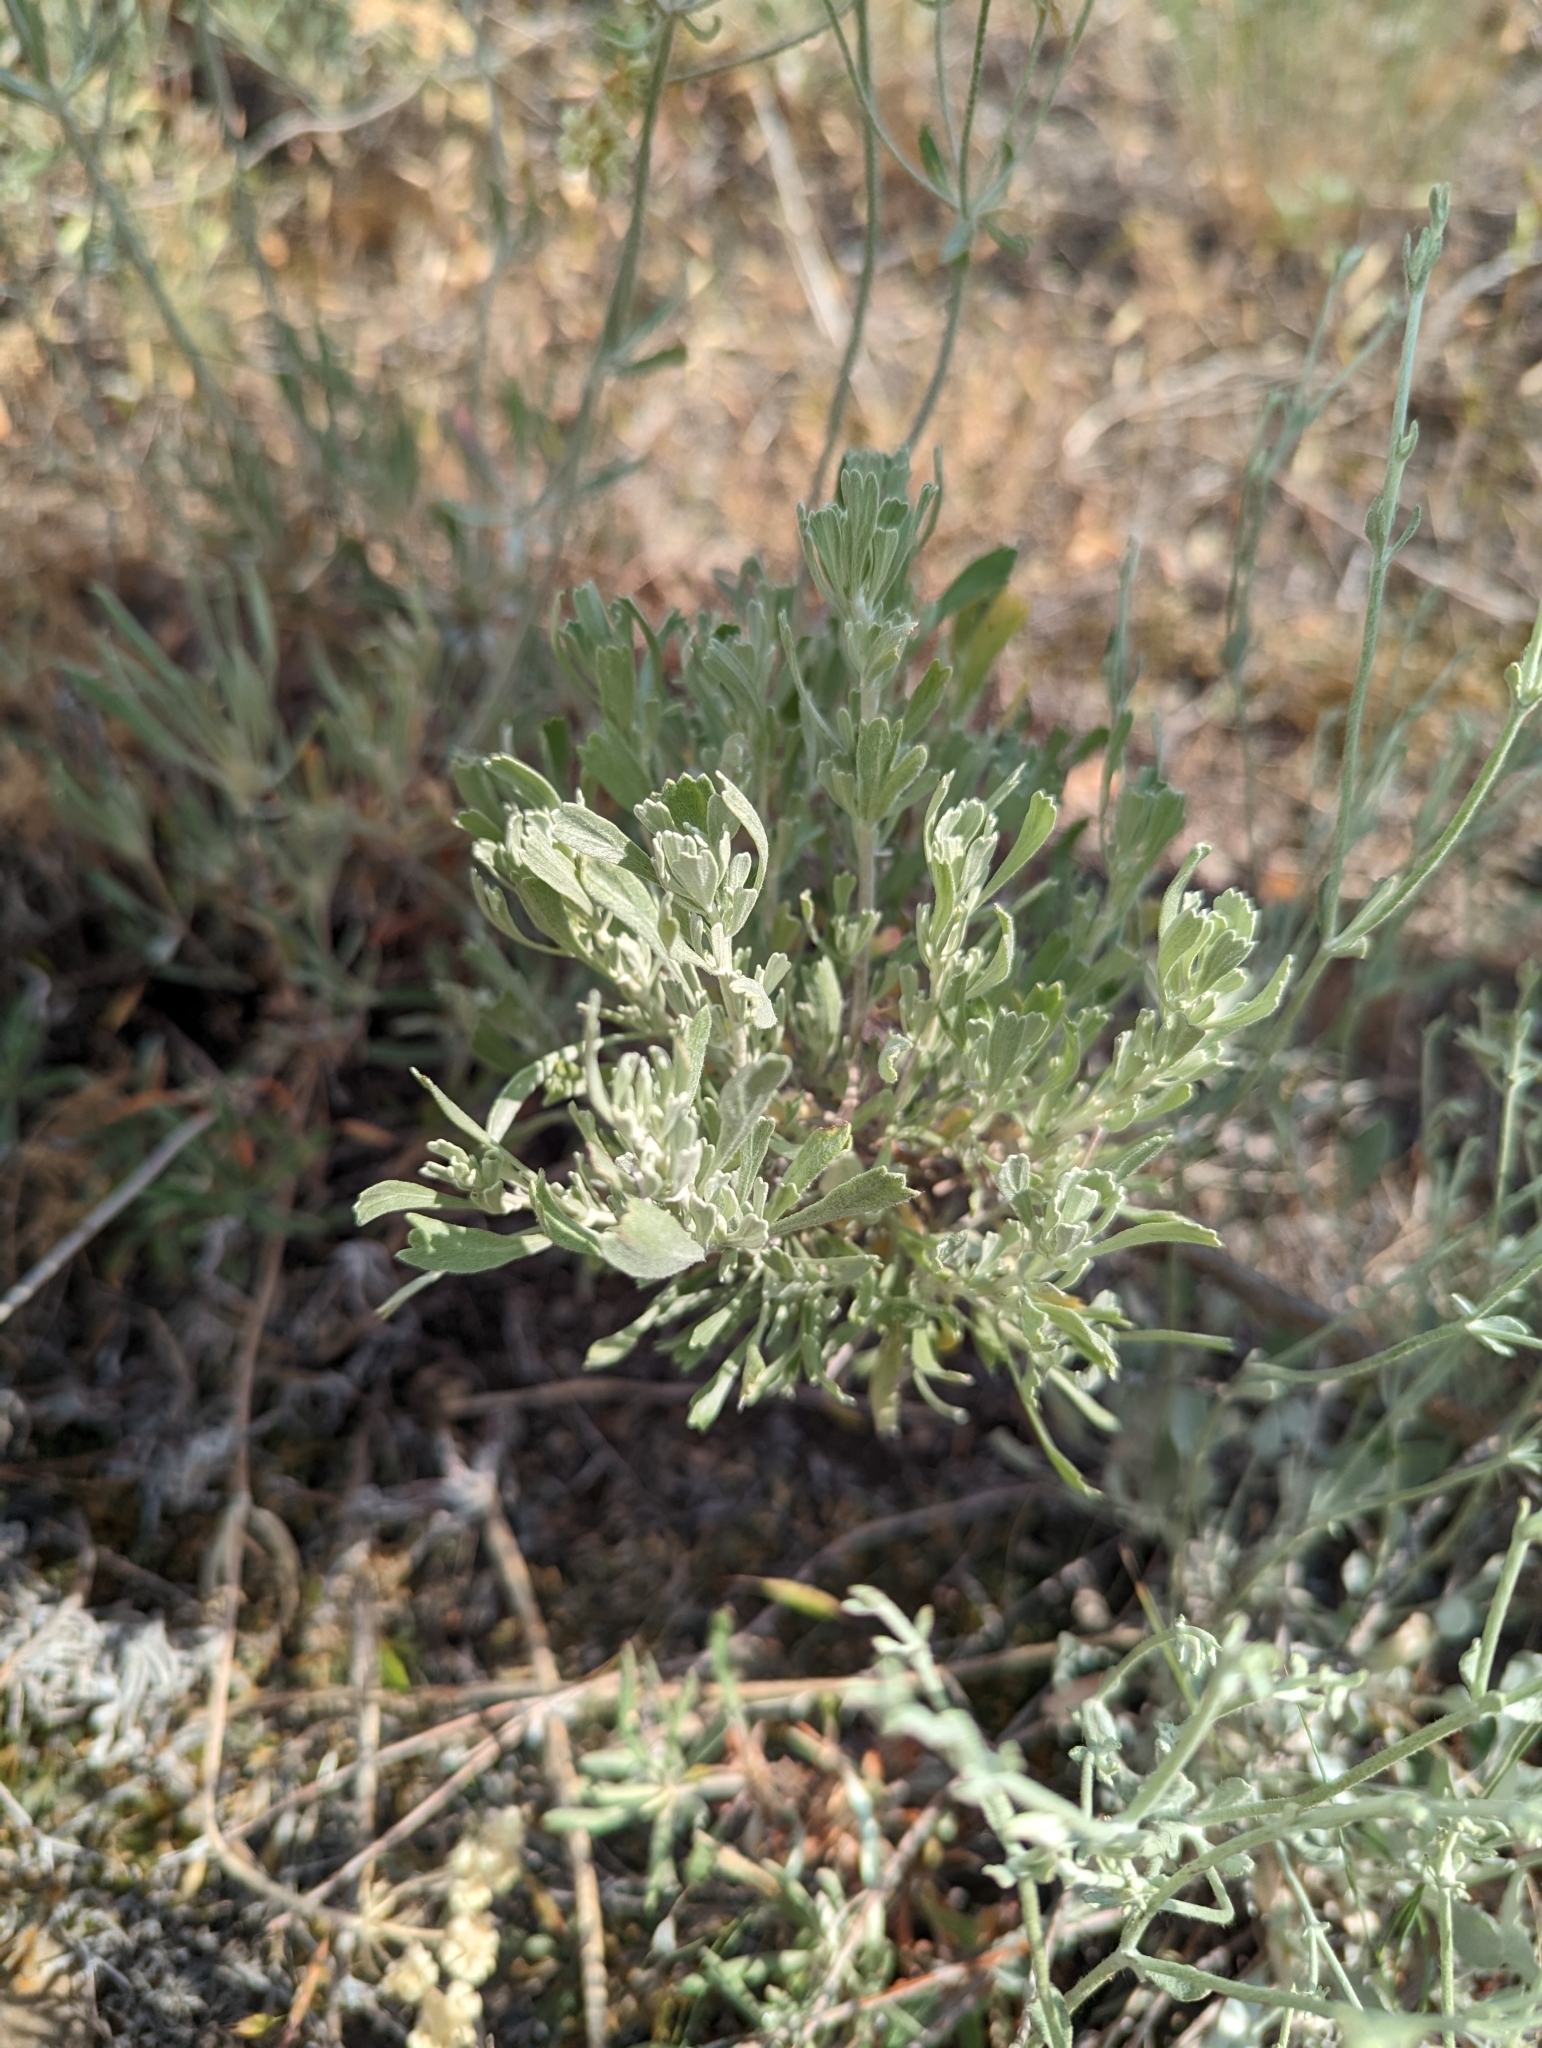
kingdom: Plantae
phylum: Tracheophyta
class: Magnoliopsida
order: Asterales
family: Asteraceae
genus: Artemisia
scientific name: Artemisia tridentata
